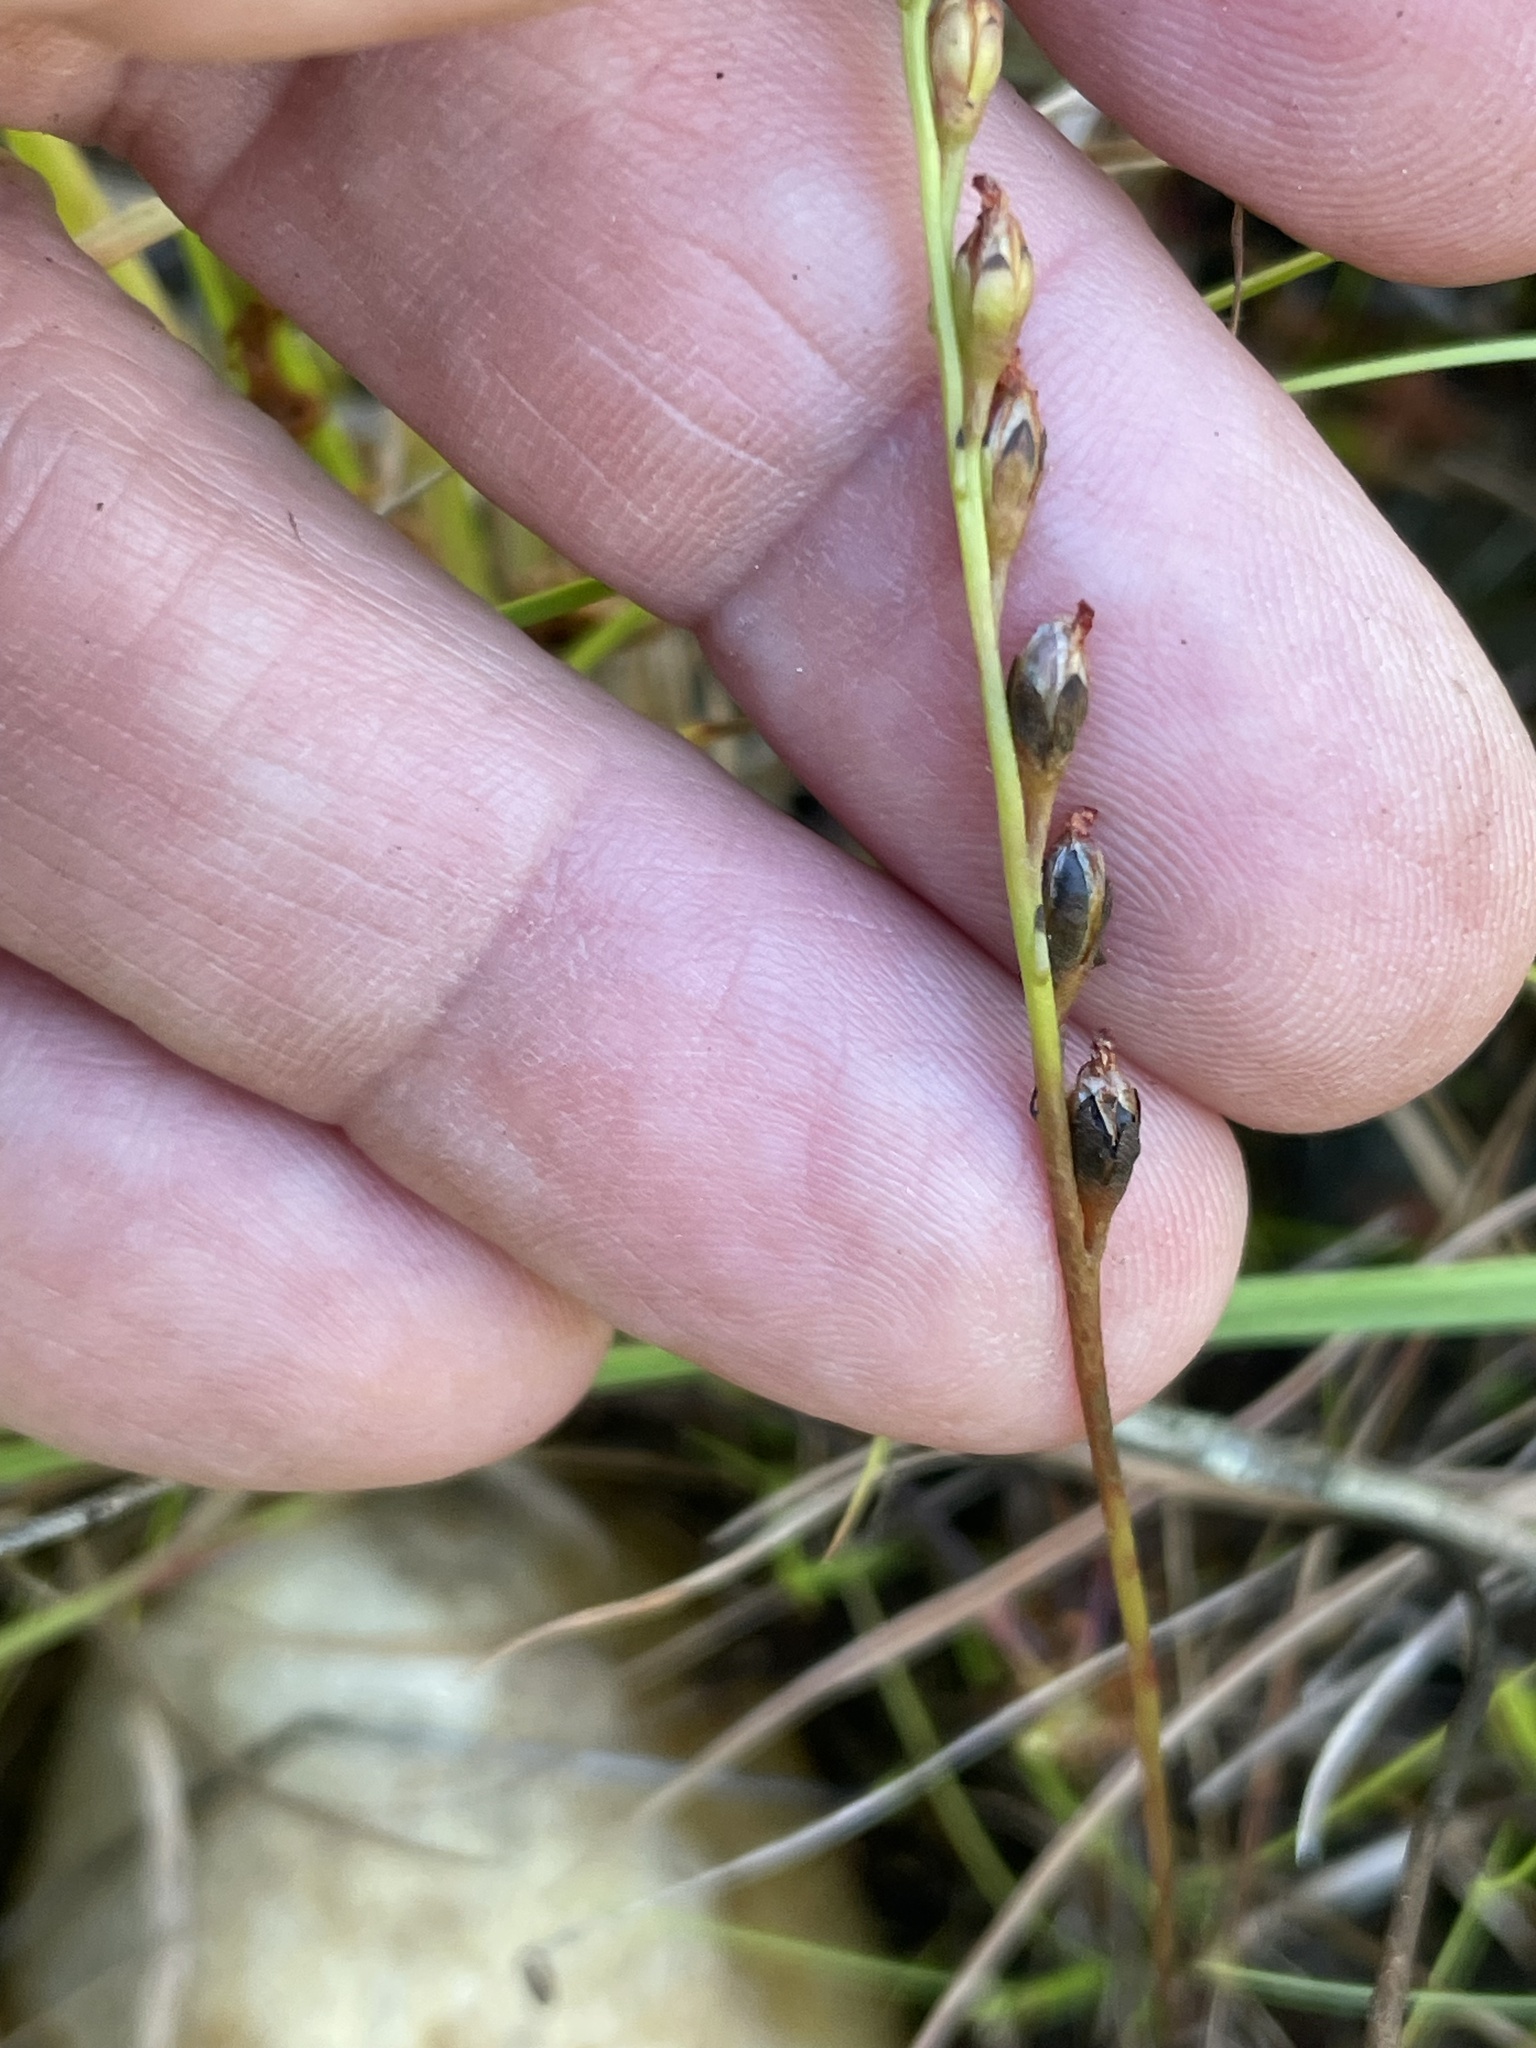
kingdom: Plantae
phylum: Tracheophyta
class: Magnoliopsida
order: Caryophyllales
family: Droseraceae
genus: Drosera
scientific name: Drosera intermedia
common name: Oblong-leaved sundew
